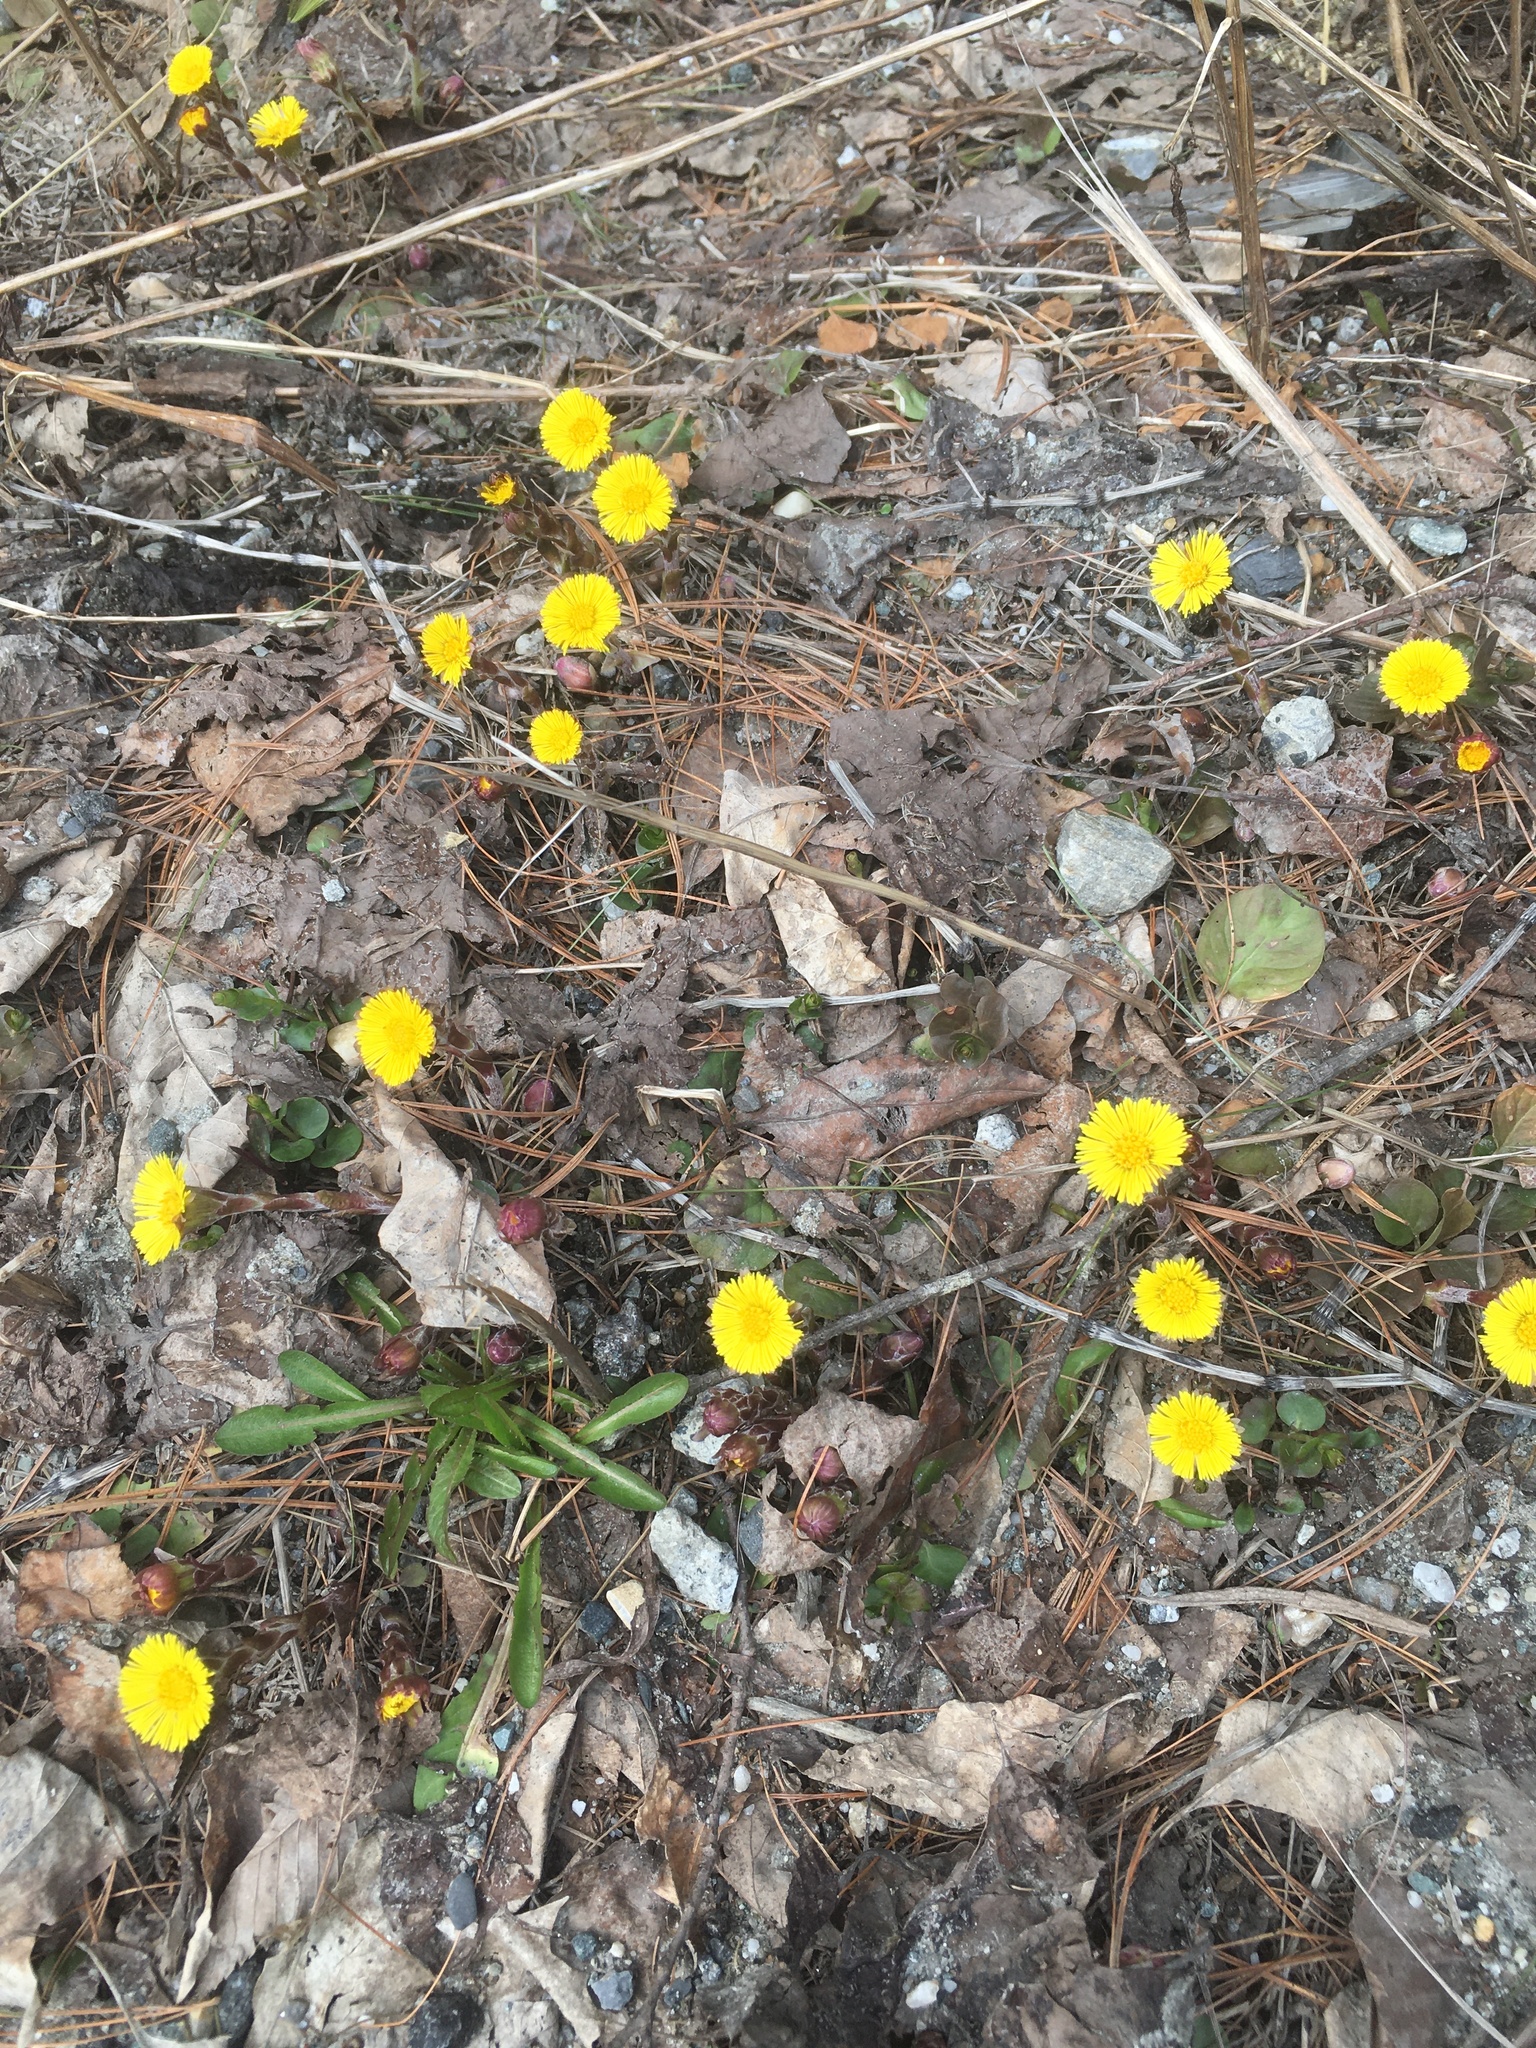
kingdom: Plantae
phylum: Tracheophyta
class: Magnoliopsida
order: Asterales
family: Asteraceae
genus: Tussilago
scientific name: Tussilago farfara
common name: Coltsfoot
